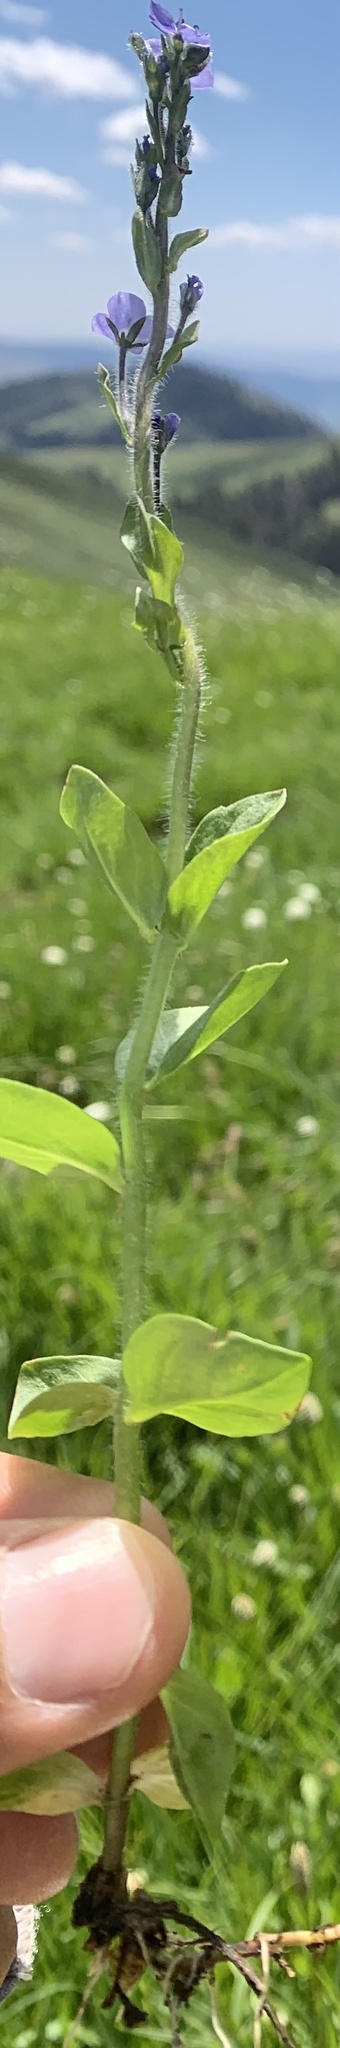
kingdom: Plantae
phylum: Tracheophyta
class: Magnoliopsida
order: Lamiales
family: Plantaginaceae
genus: Veronica
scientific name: Veronica serpyllifolia
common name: Thyme-leaved speedwell
